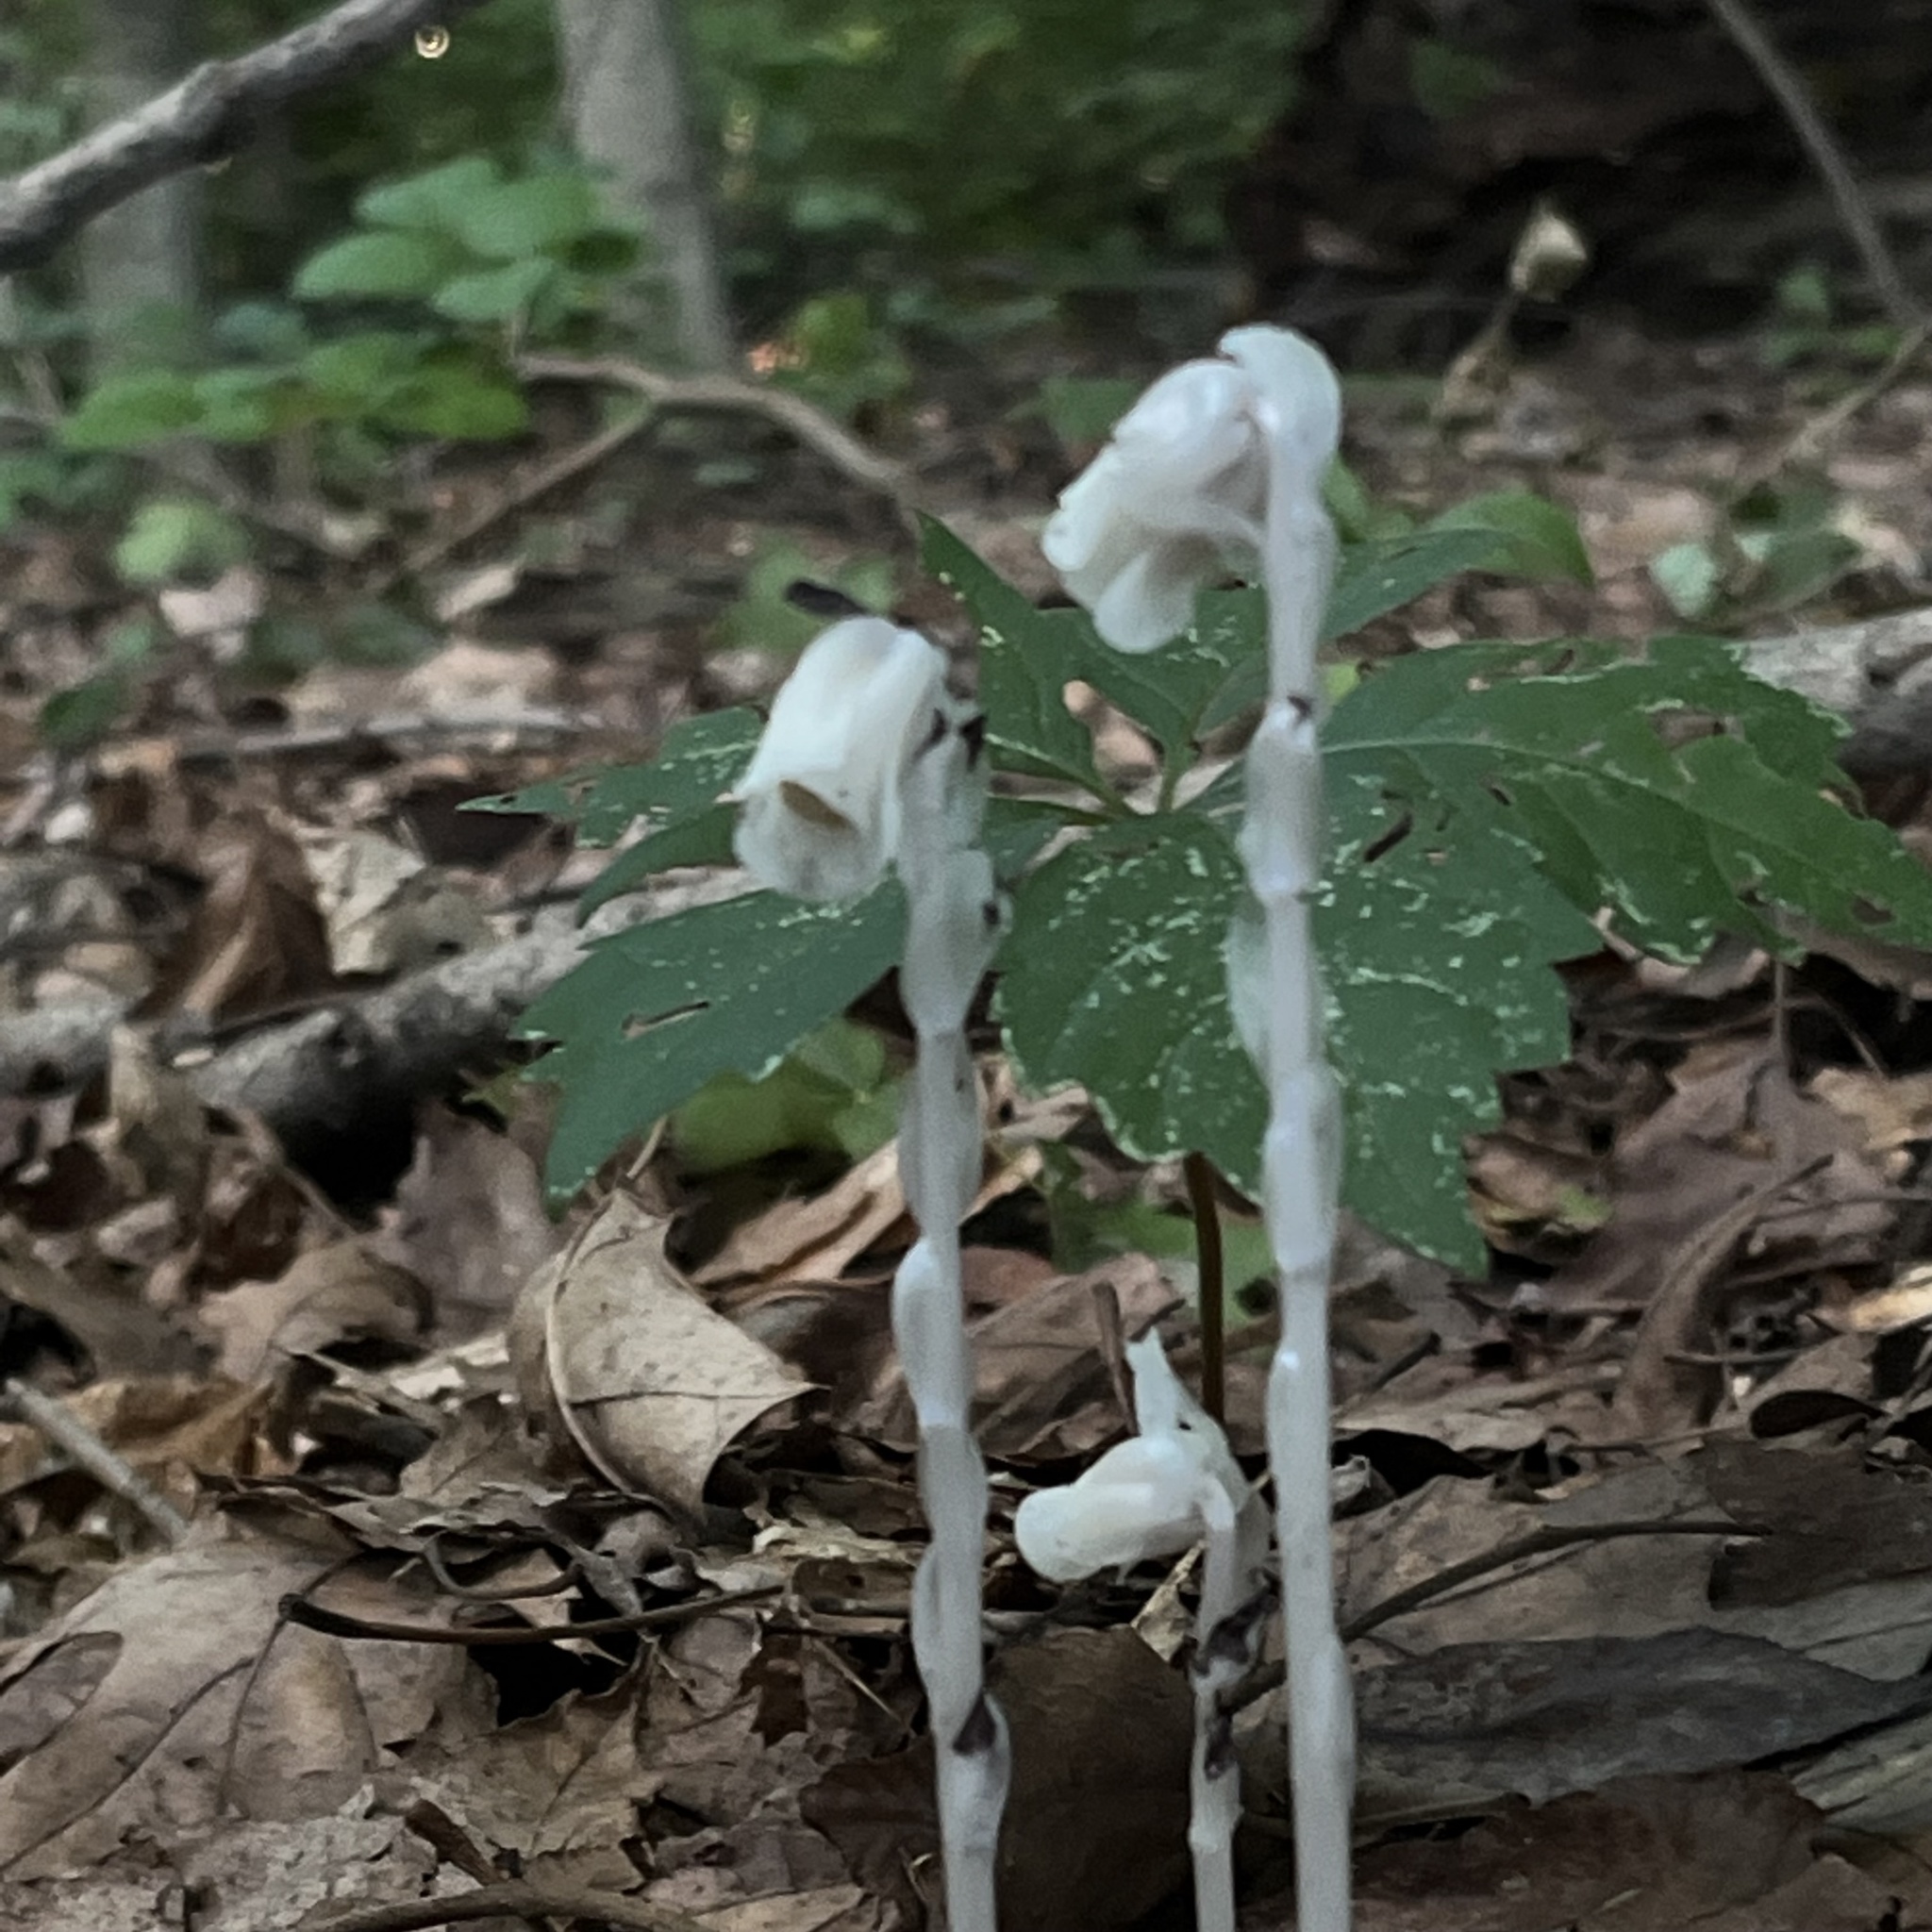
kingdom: Plantae
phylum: Tracheophyta
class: Magnoliopsida
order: Ericales
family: Ericaceae
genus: Monotropa
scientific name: Monotropa uniflora
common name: Convulsion root
